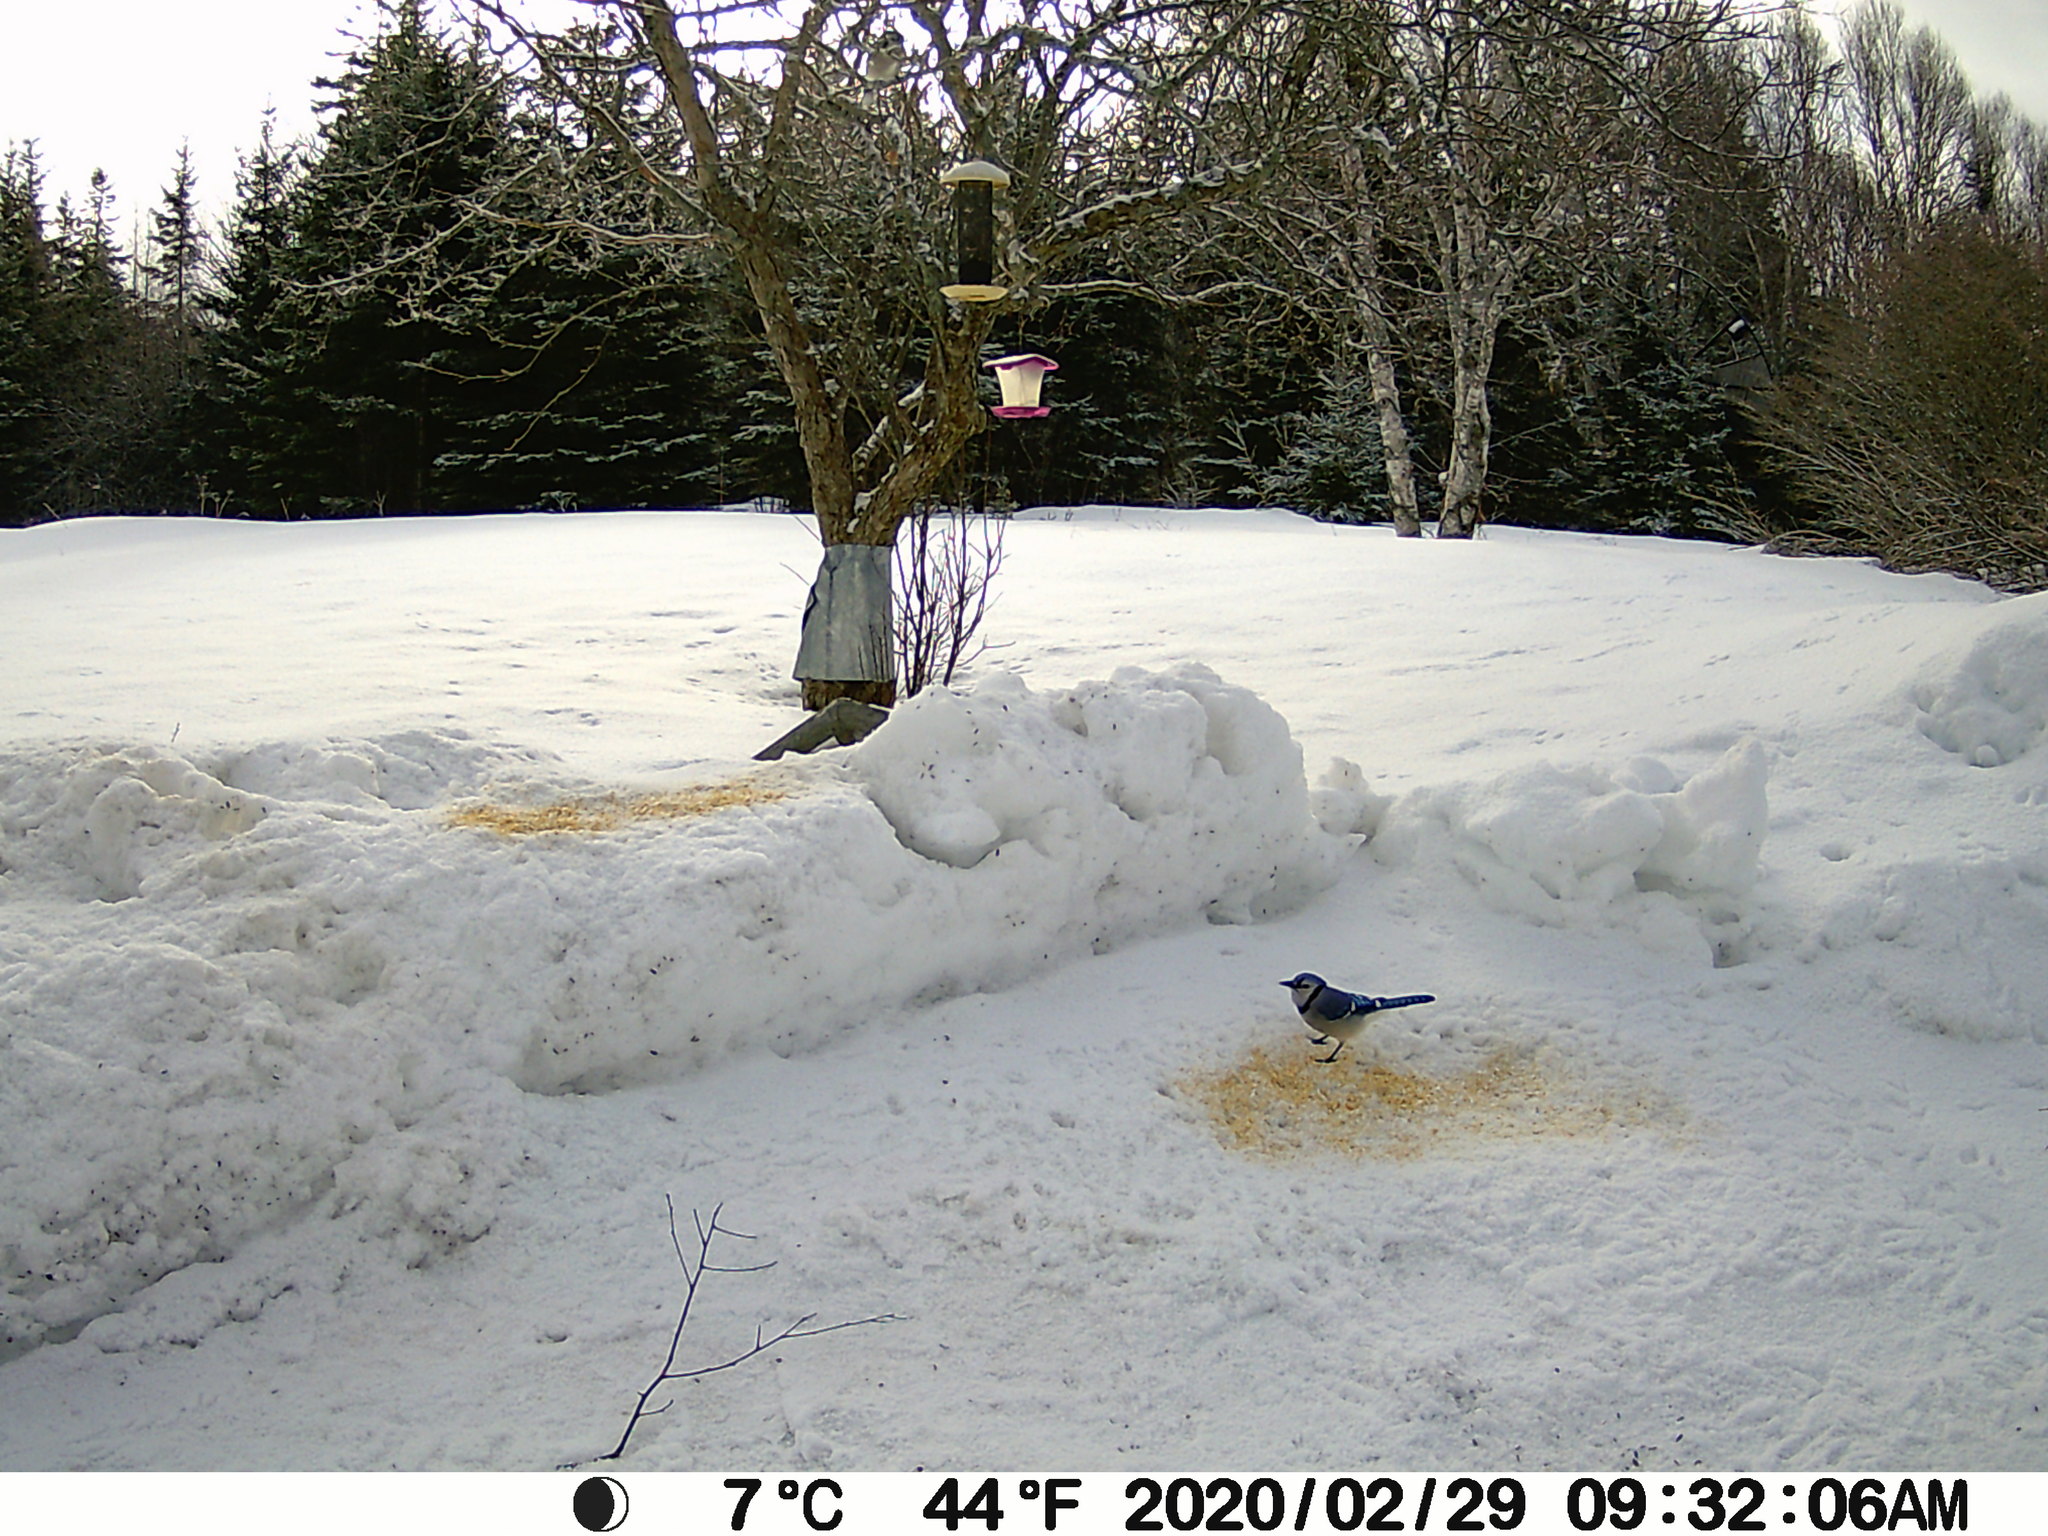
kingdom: Animalia
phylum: Chordata
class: Aves
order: Passeriformes
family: Corvidae
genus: Cyanocitta
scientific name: Cyanocitta cristata
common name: Blue jay
